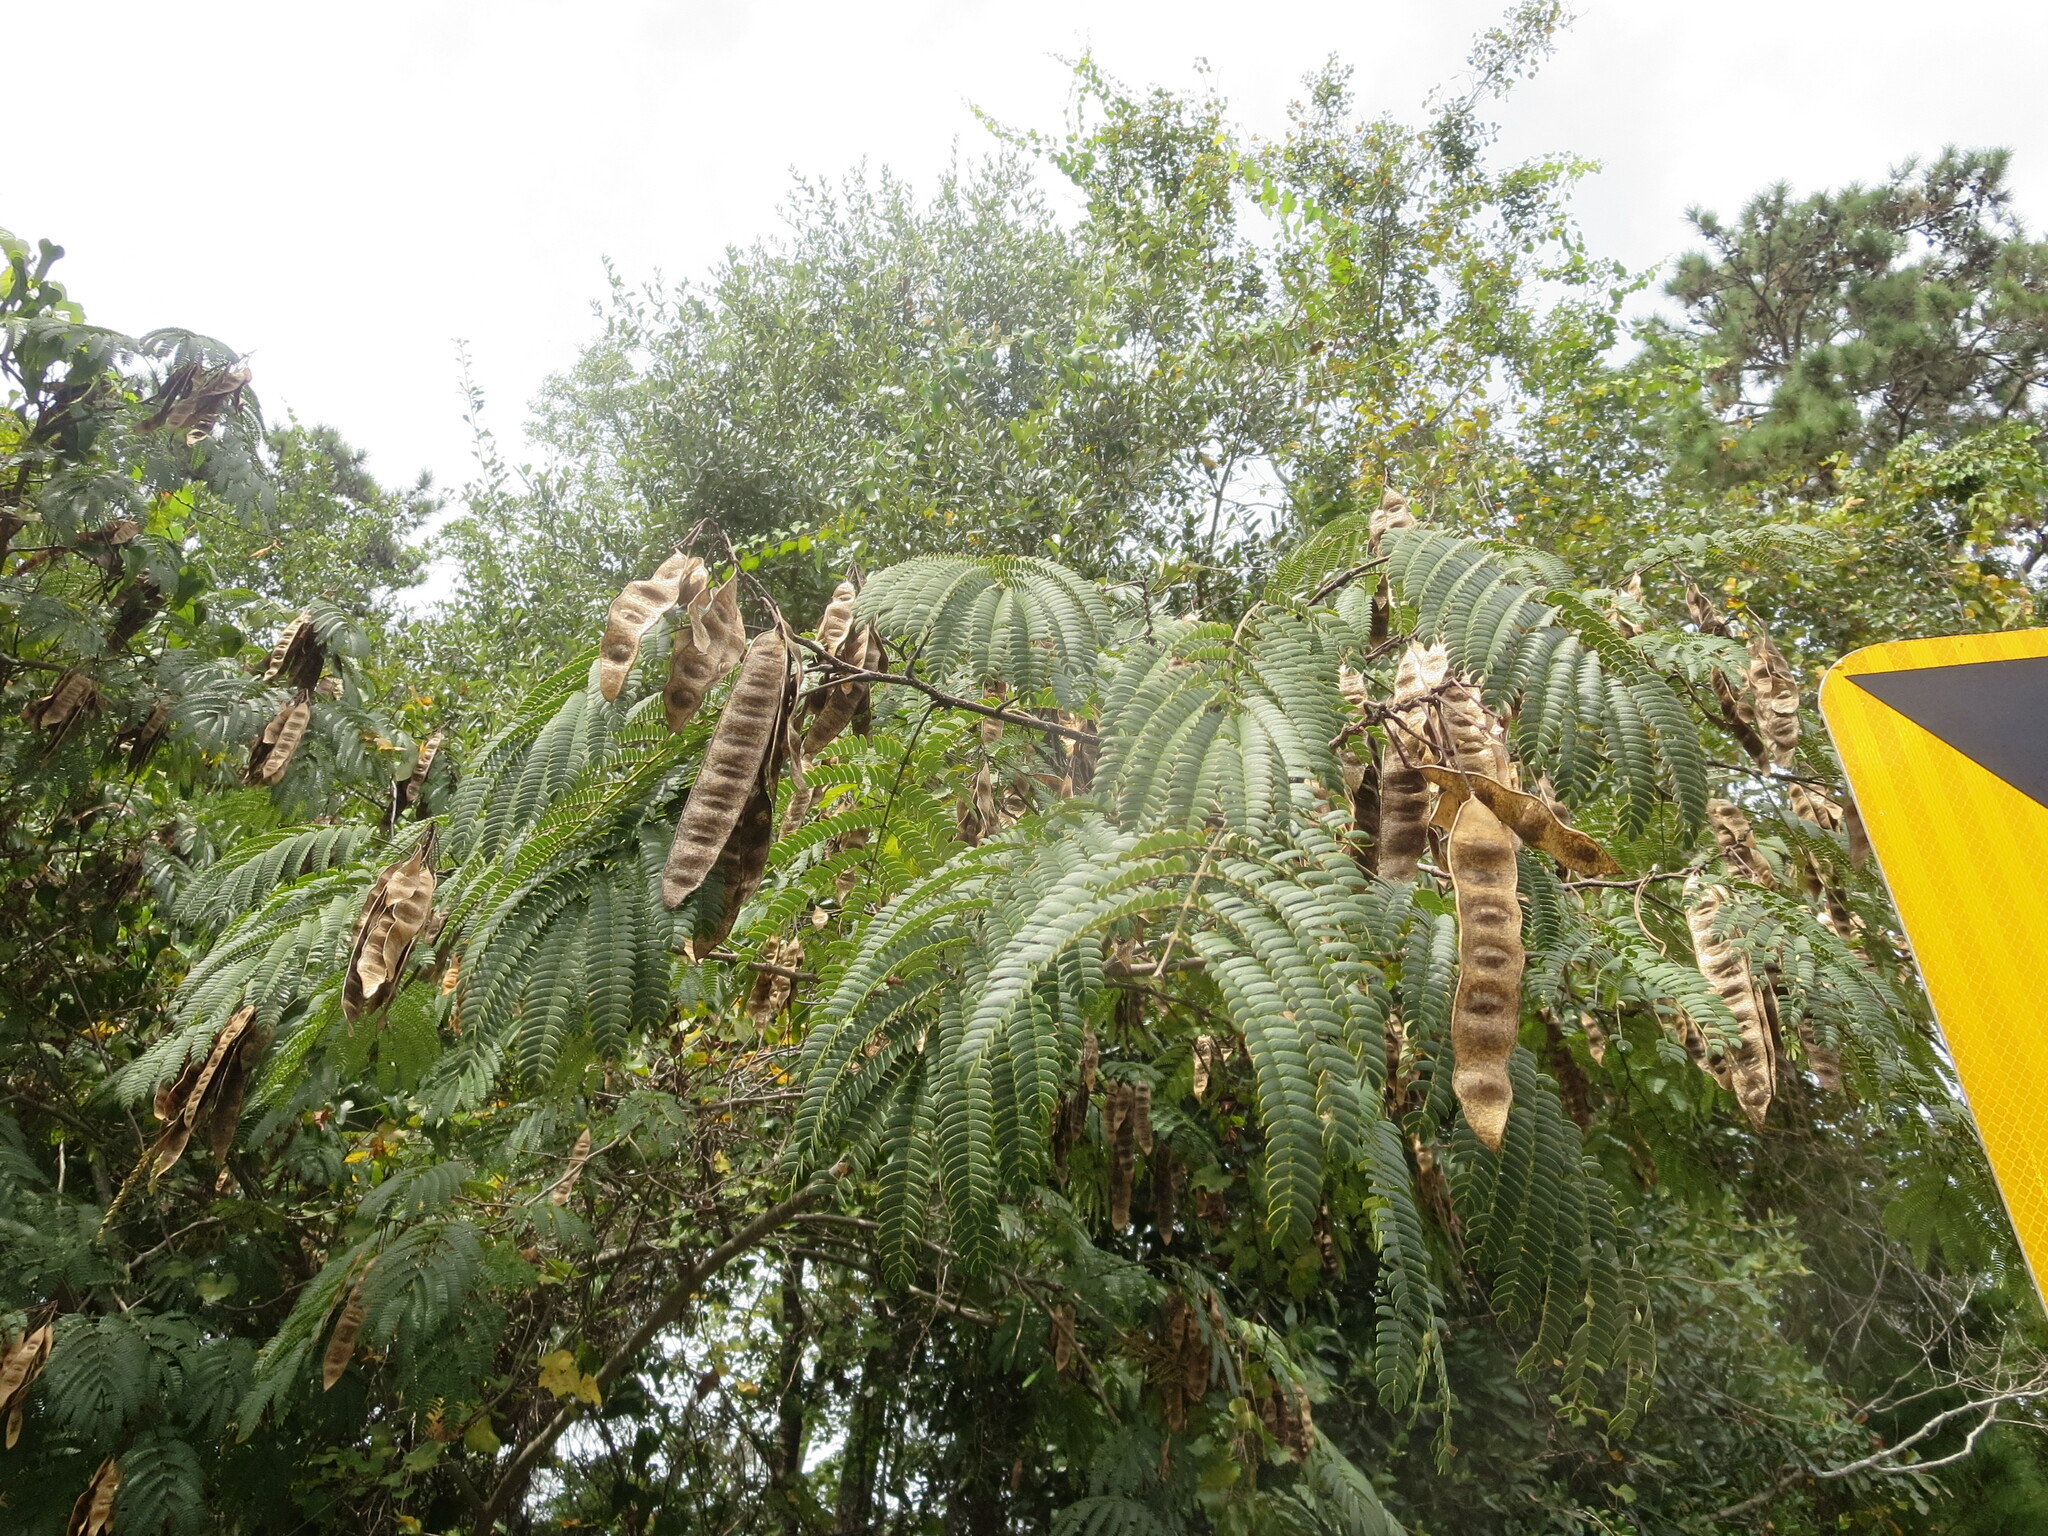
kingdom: Plantae
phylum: Tracheophyta
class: Magnoliopsida
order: Fabales
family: Fabaceae
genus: Albizia
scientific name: Albizia julibrissin
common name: Silktree
